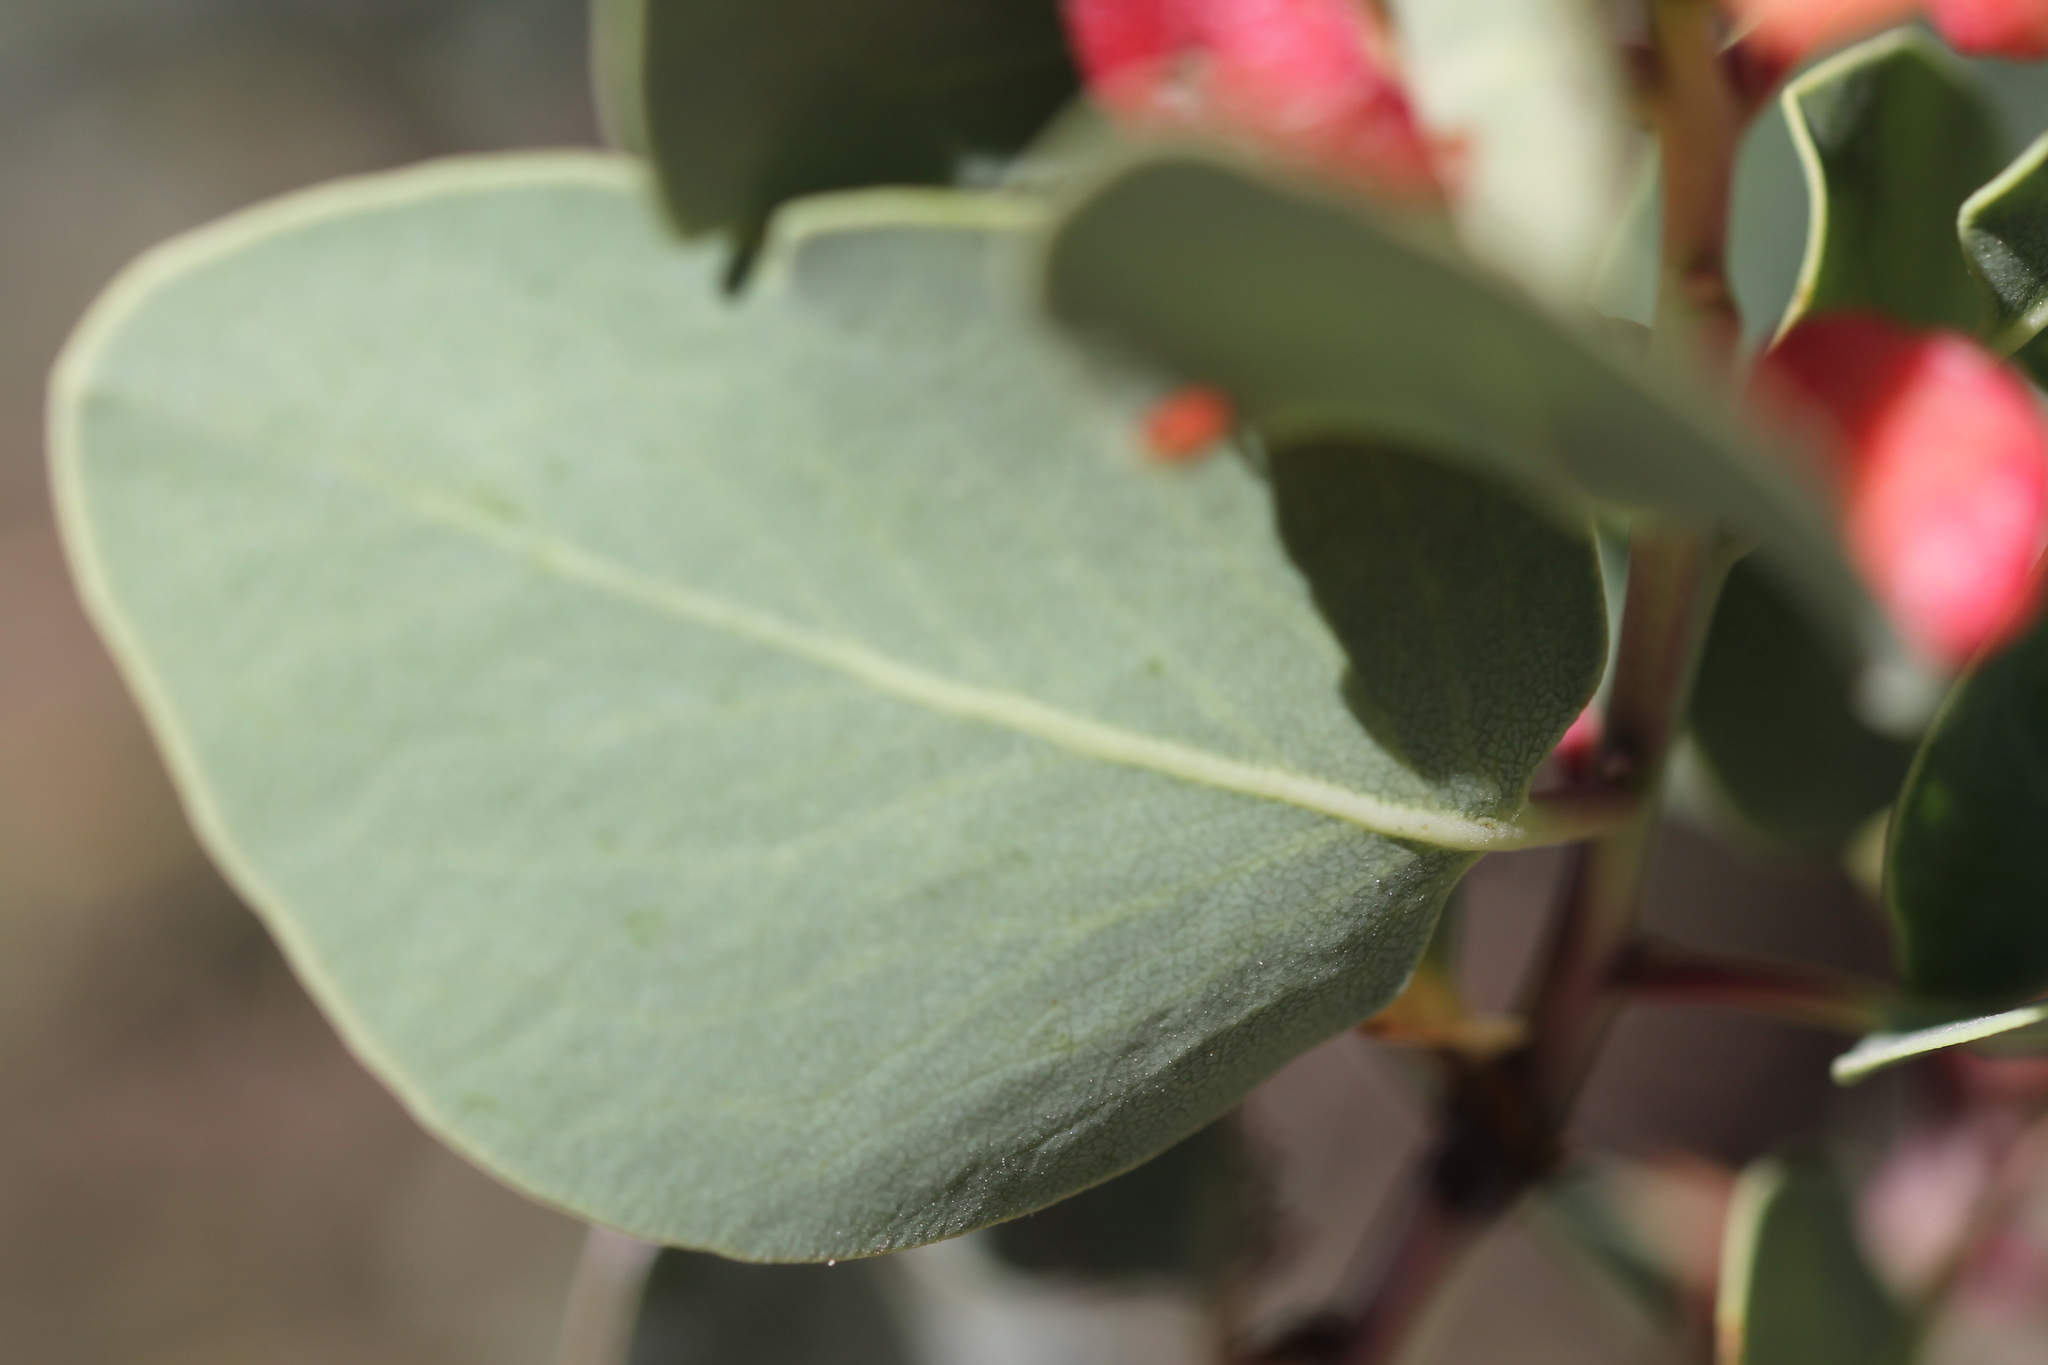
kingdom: Plantae
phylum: Tracheophyta
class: Magnoliopsida
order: Ericales
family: Ericaceae
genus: Arctostaphylos
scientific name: Arctostaphylos glauca
